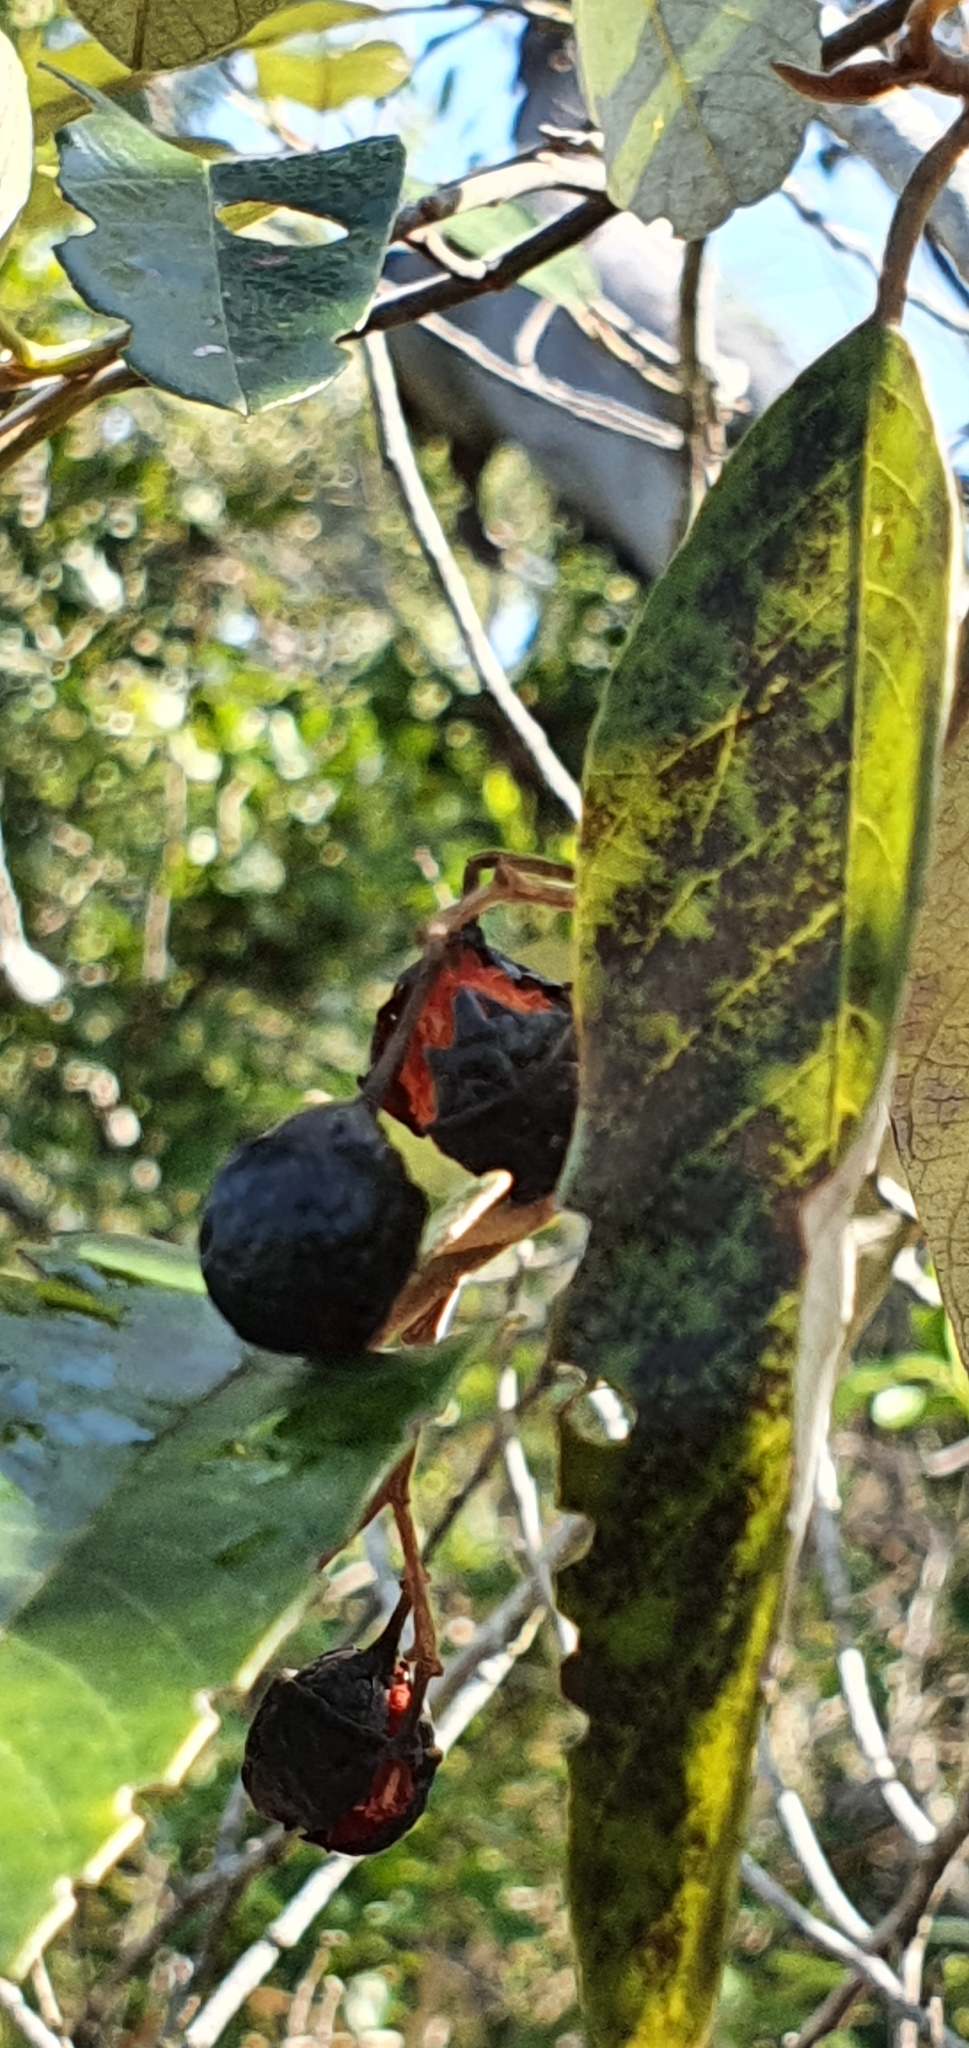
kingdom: Plantae
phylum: Tracheophyta
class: Magnoliopsida
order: Rosales
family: Rhamnaceae
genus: Alphitonia
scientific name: Alphitonia excelsa
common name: Red ash
